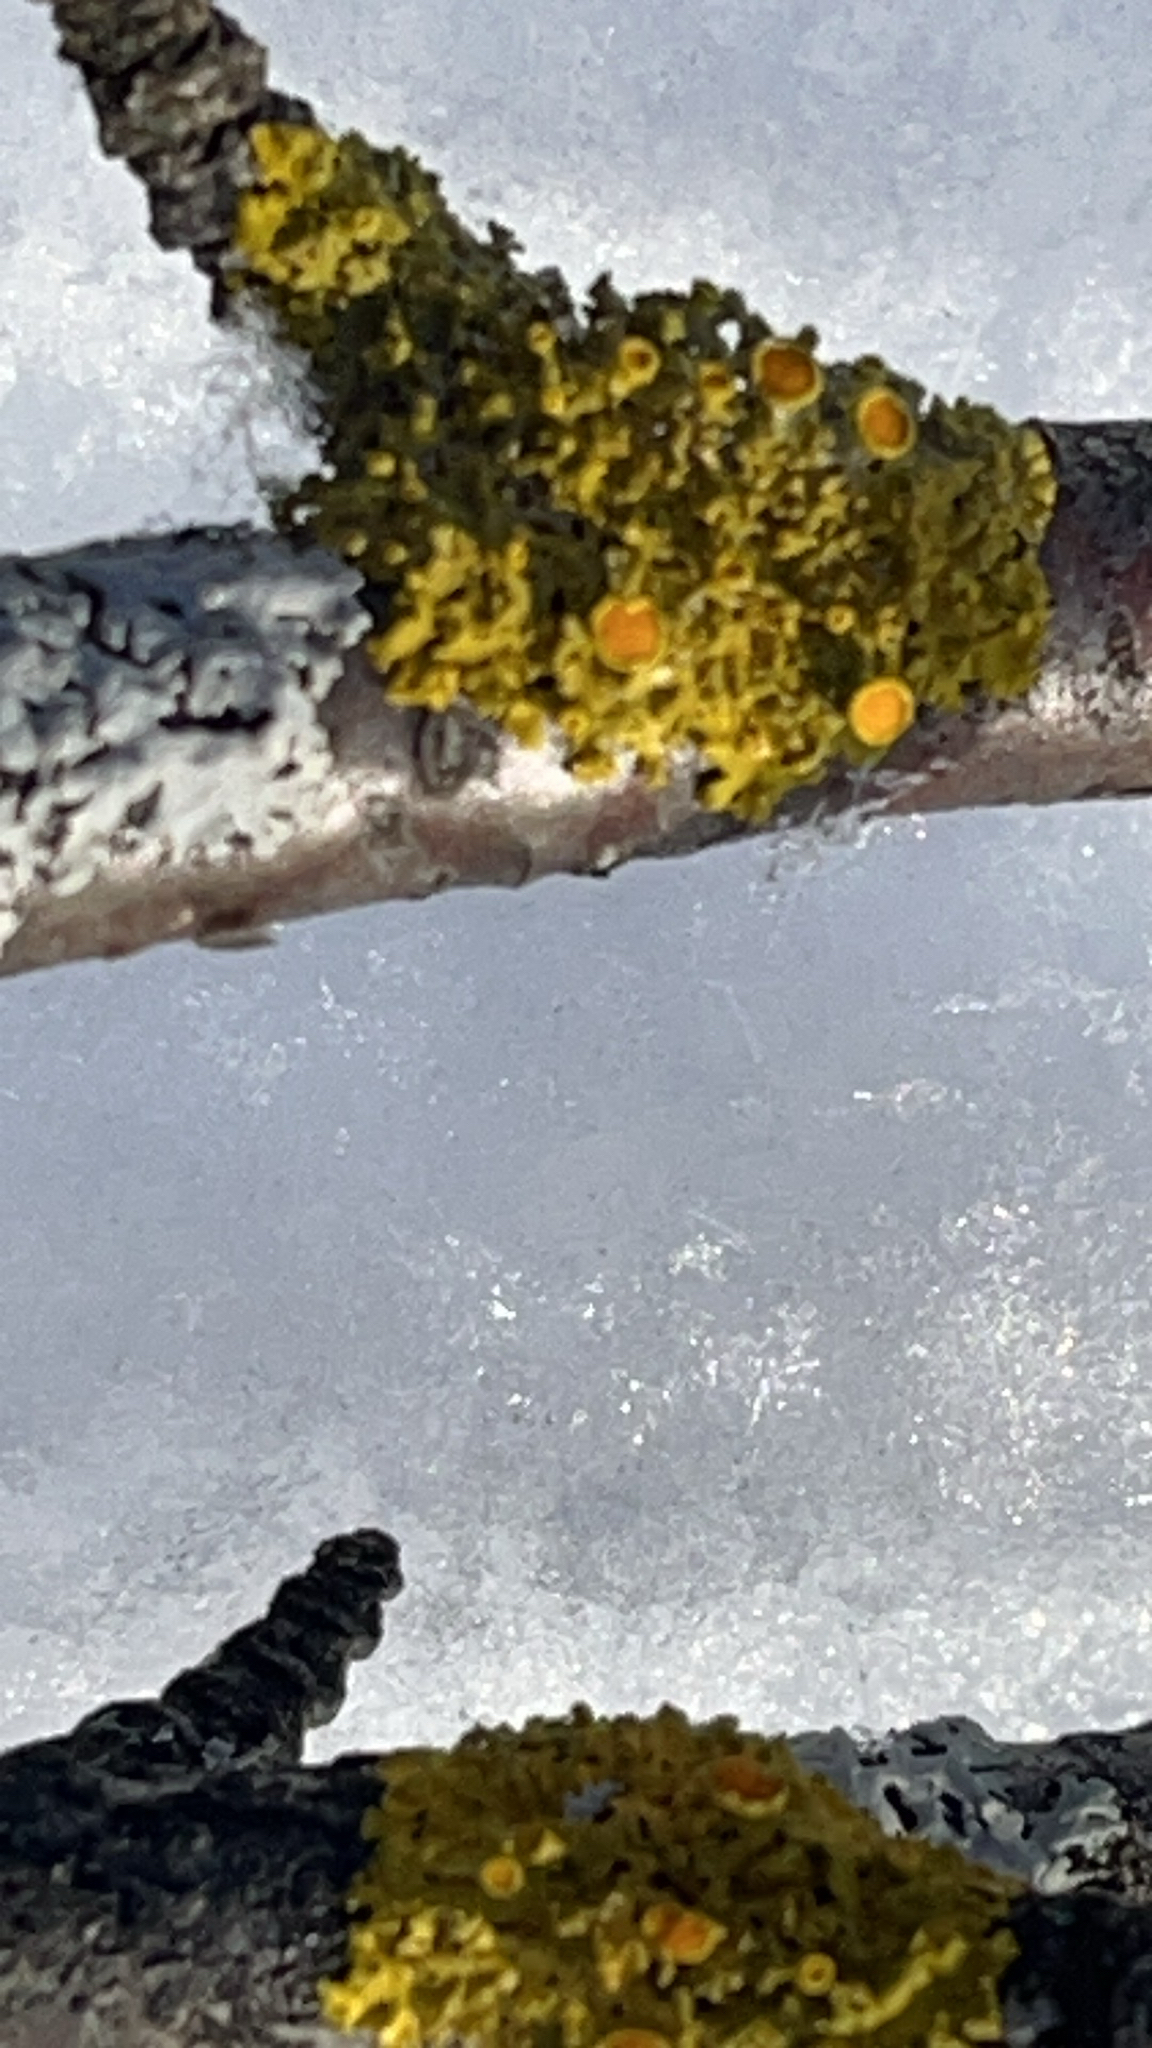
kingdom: Fungi
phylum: Ascomycota
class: Lecanoromycetes
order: Teloschistales
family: Teloschistaceae
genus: Gallowayella
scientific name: Gallowayella hasseana
